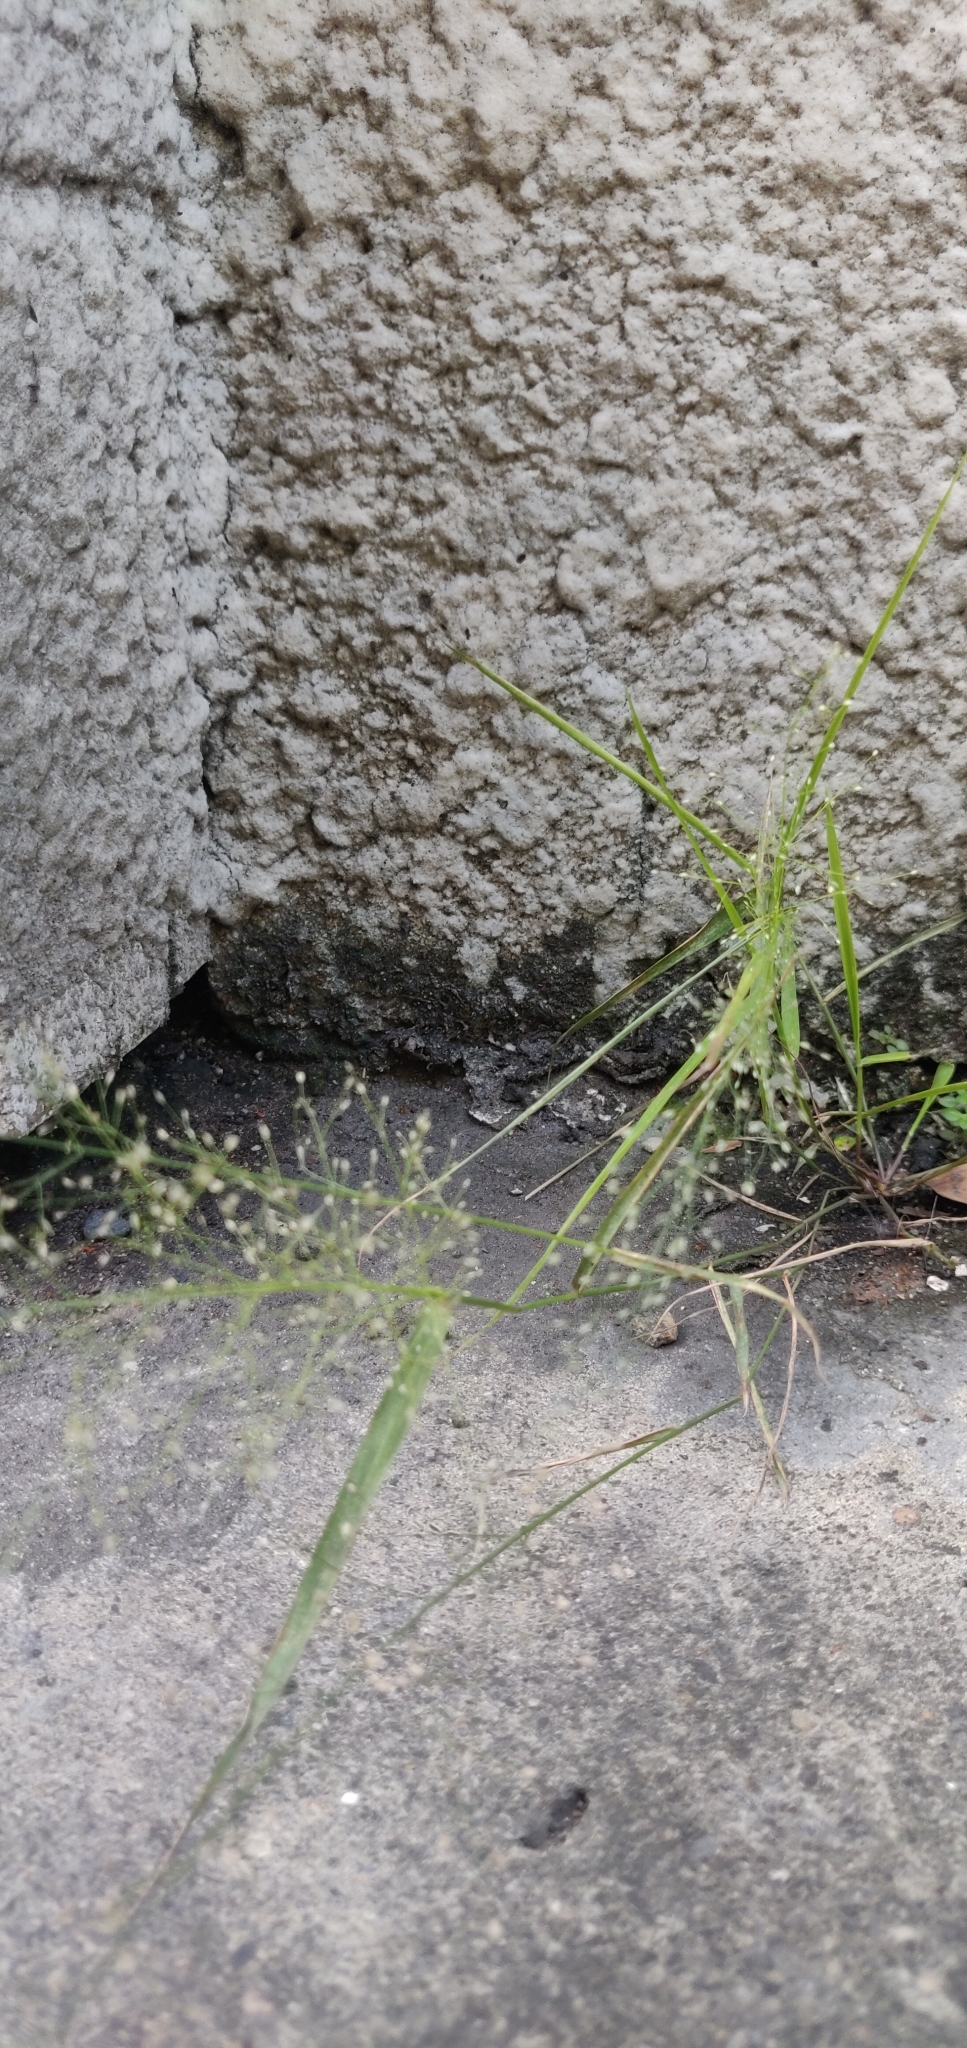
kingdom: Plantae
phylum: Tracheophyta
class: Liliopsida
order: Poales
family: Poaceae
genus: Eragrostis
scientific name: Eragrostis tenella
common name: Japanese lovegrass
